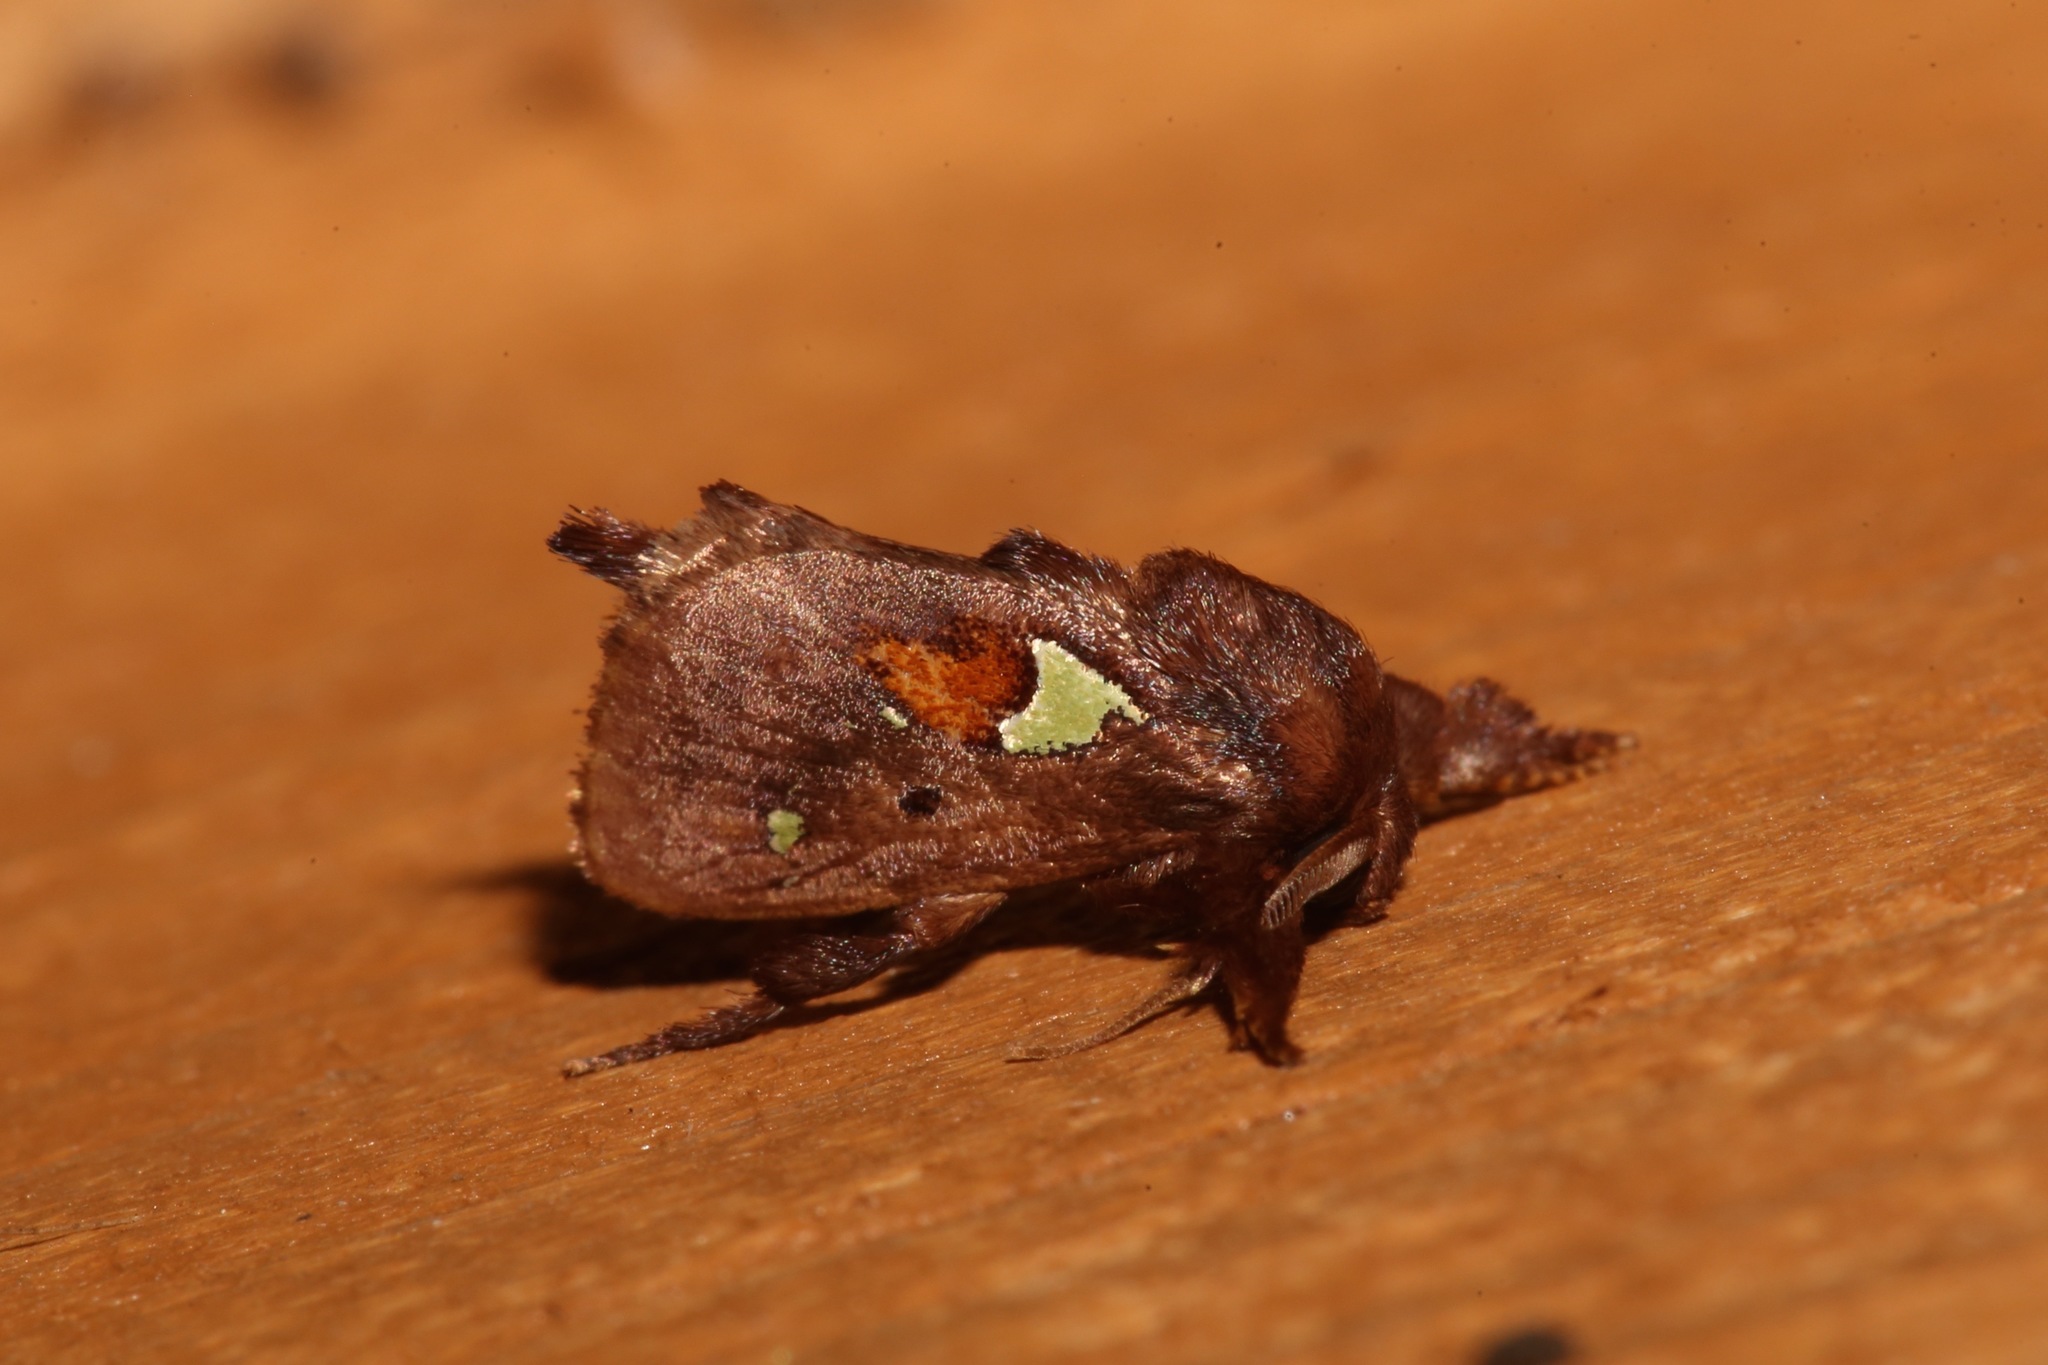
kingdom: Animalia
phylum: Arthropoda
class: Insecta
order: Lepidoptera
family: Limacodidae
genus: Euclea
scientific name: Euclea delphinii
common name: Spiny oak-slug moth
